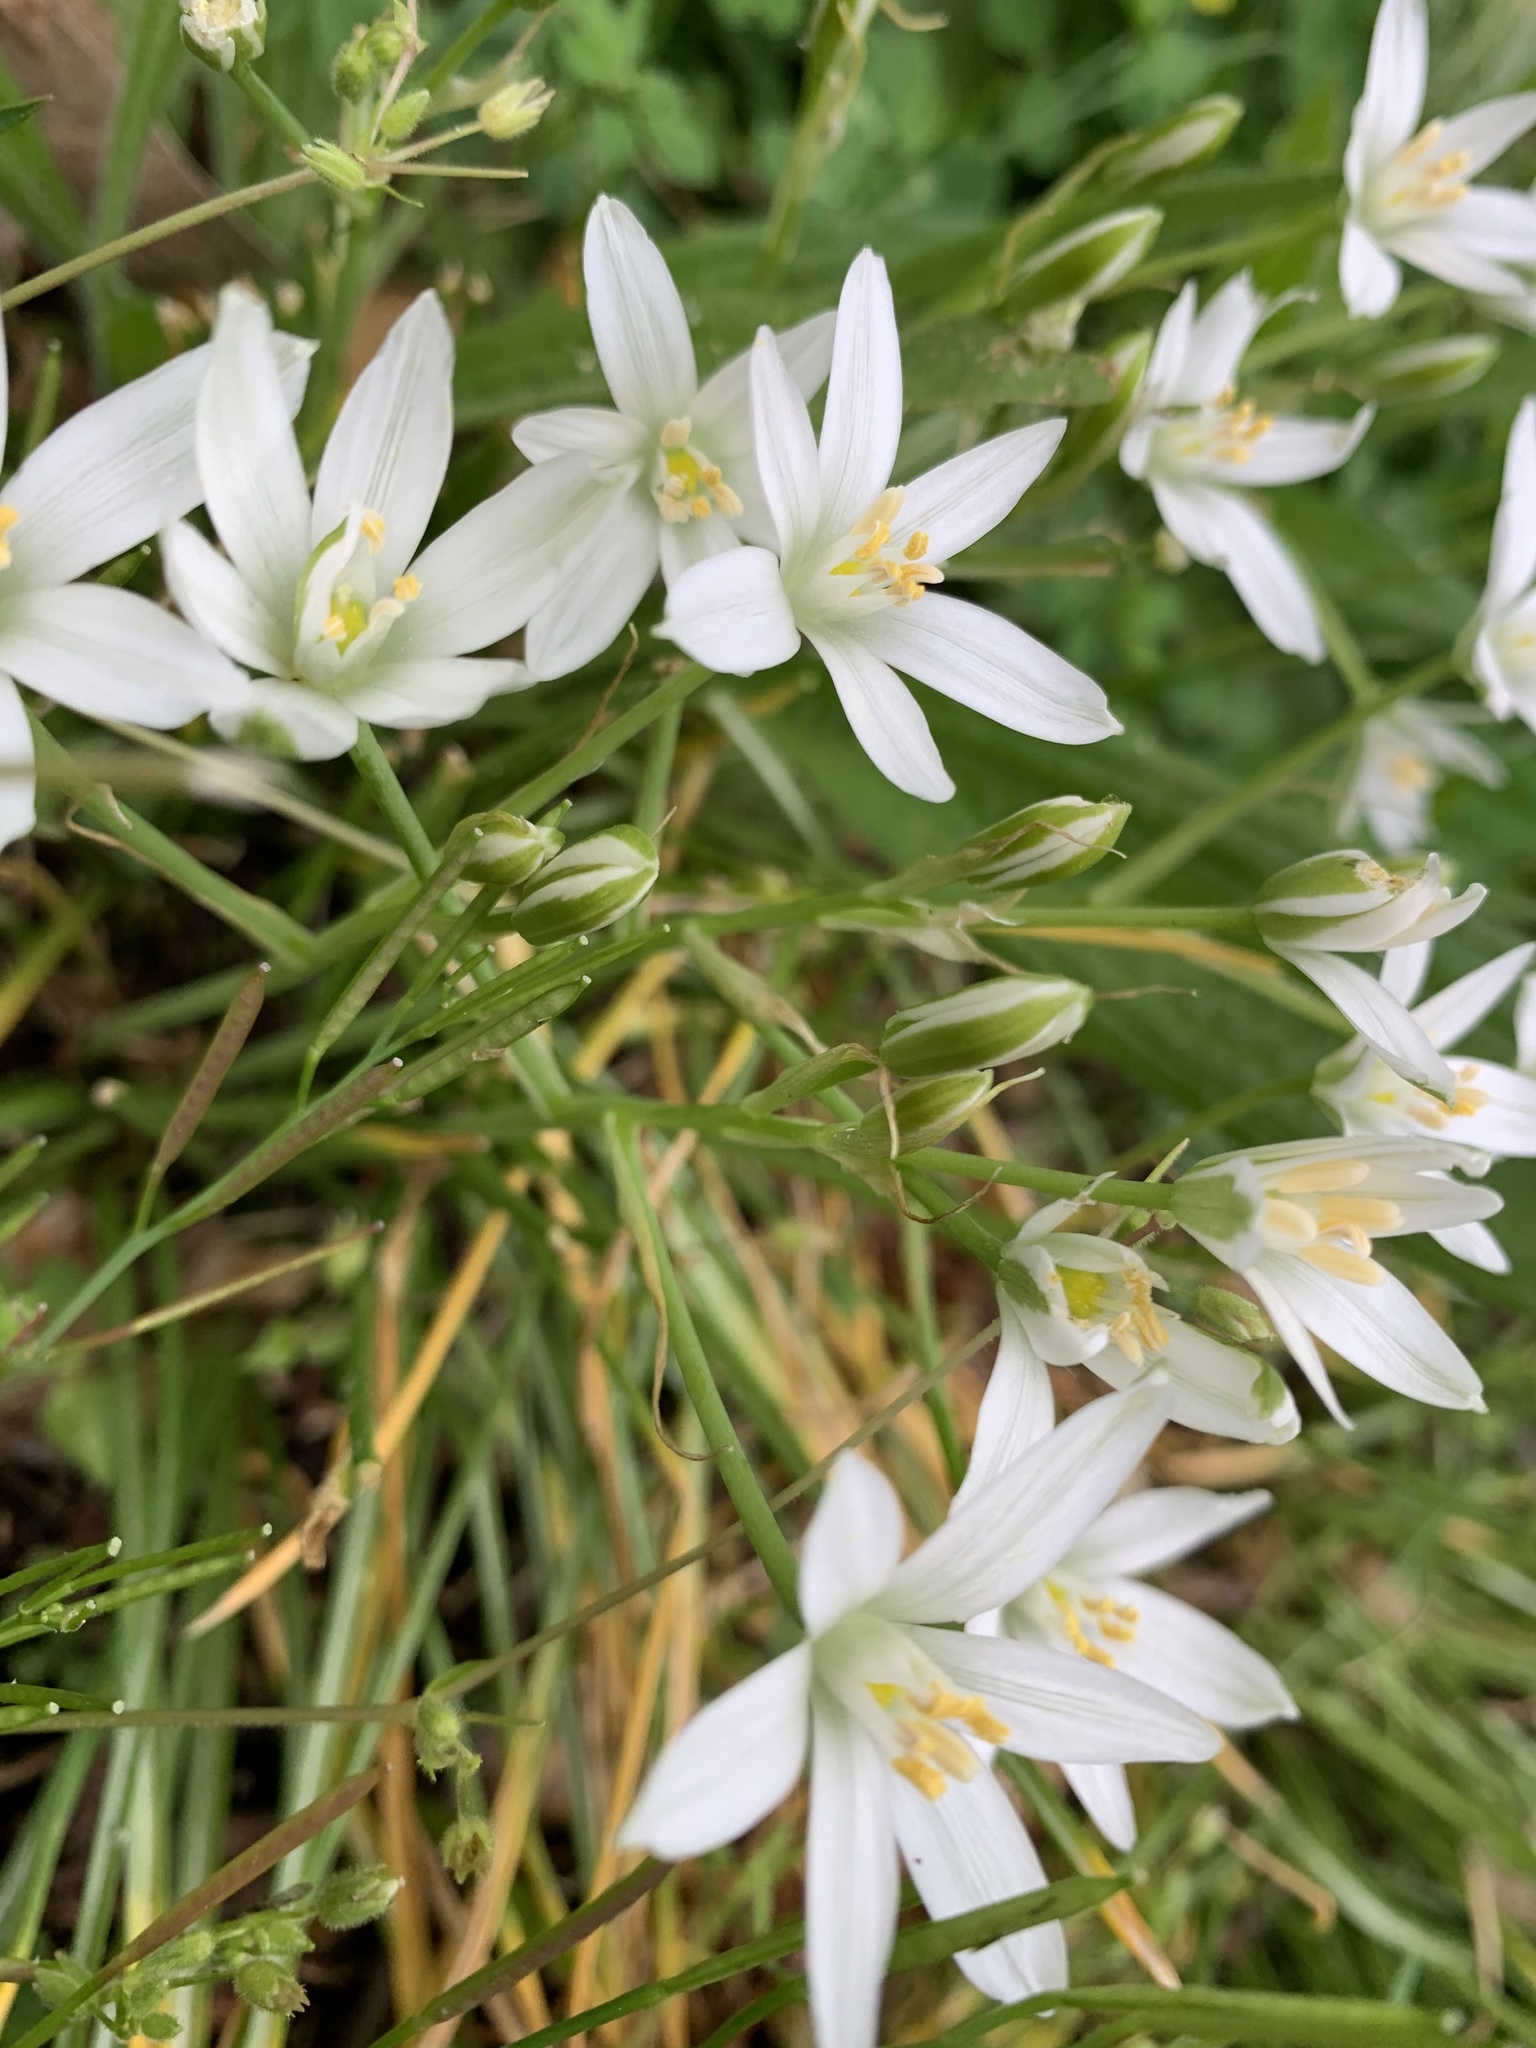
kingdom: Plantae
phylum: Tracheophyta
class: Liliopsida
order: Asparagales
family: Asparagaceae
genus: Ornithogalum
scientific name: Ornithogalum umbellatum
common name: Garden star-of-bethlehem
